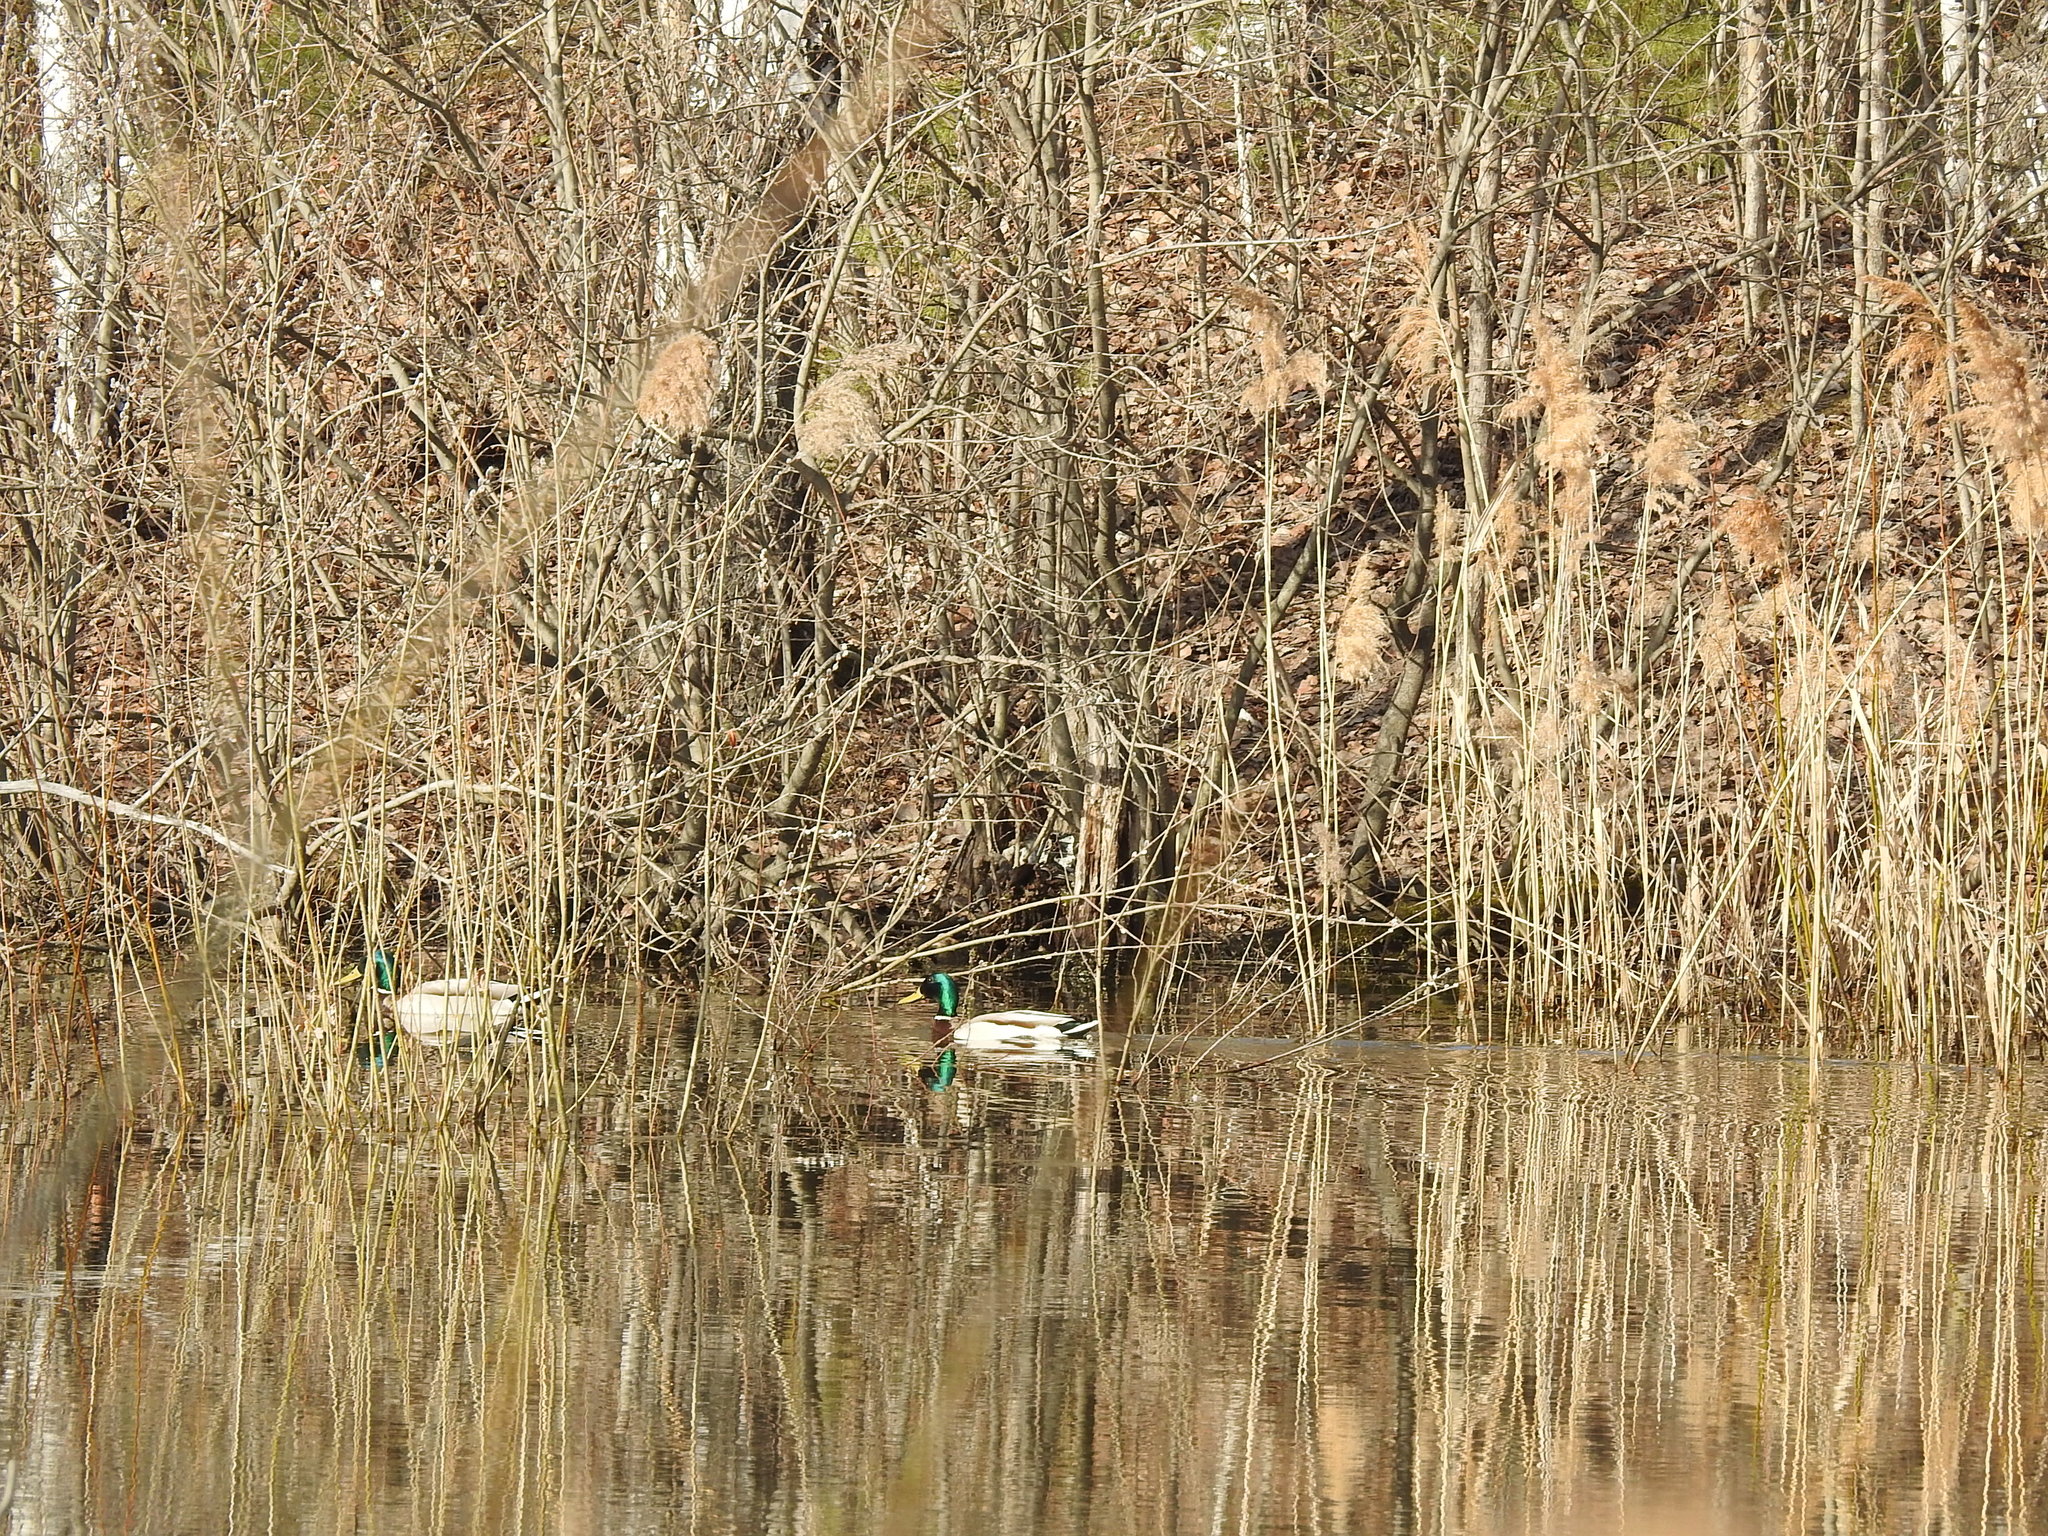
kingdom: Animalia
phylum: Chordata
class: Aves
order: Anseriformes
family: Anatidae
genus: Anas
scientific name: Anas platyrhynchos
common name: Mallard
